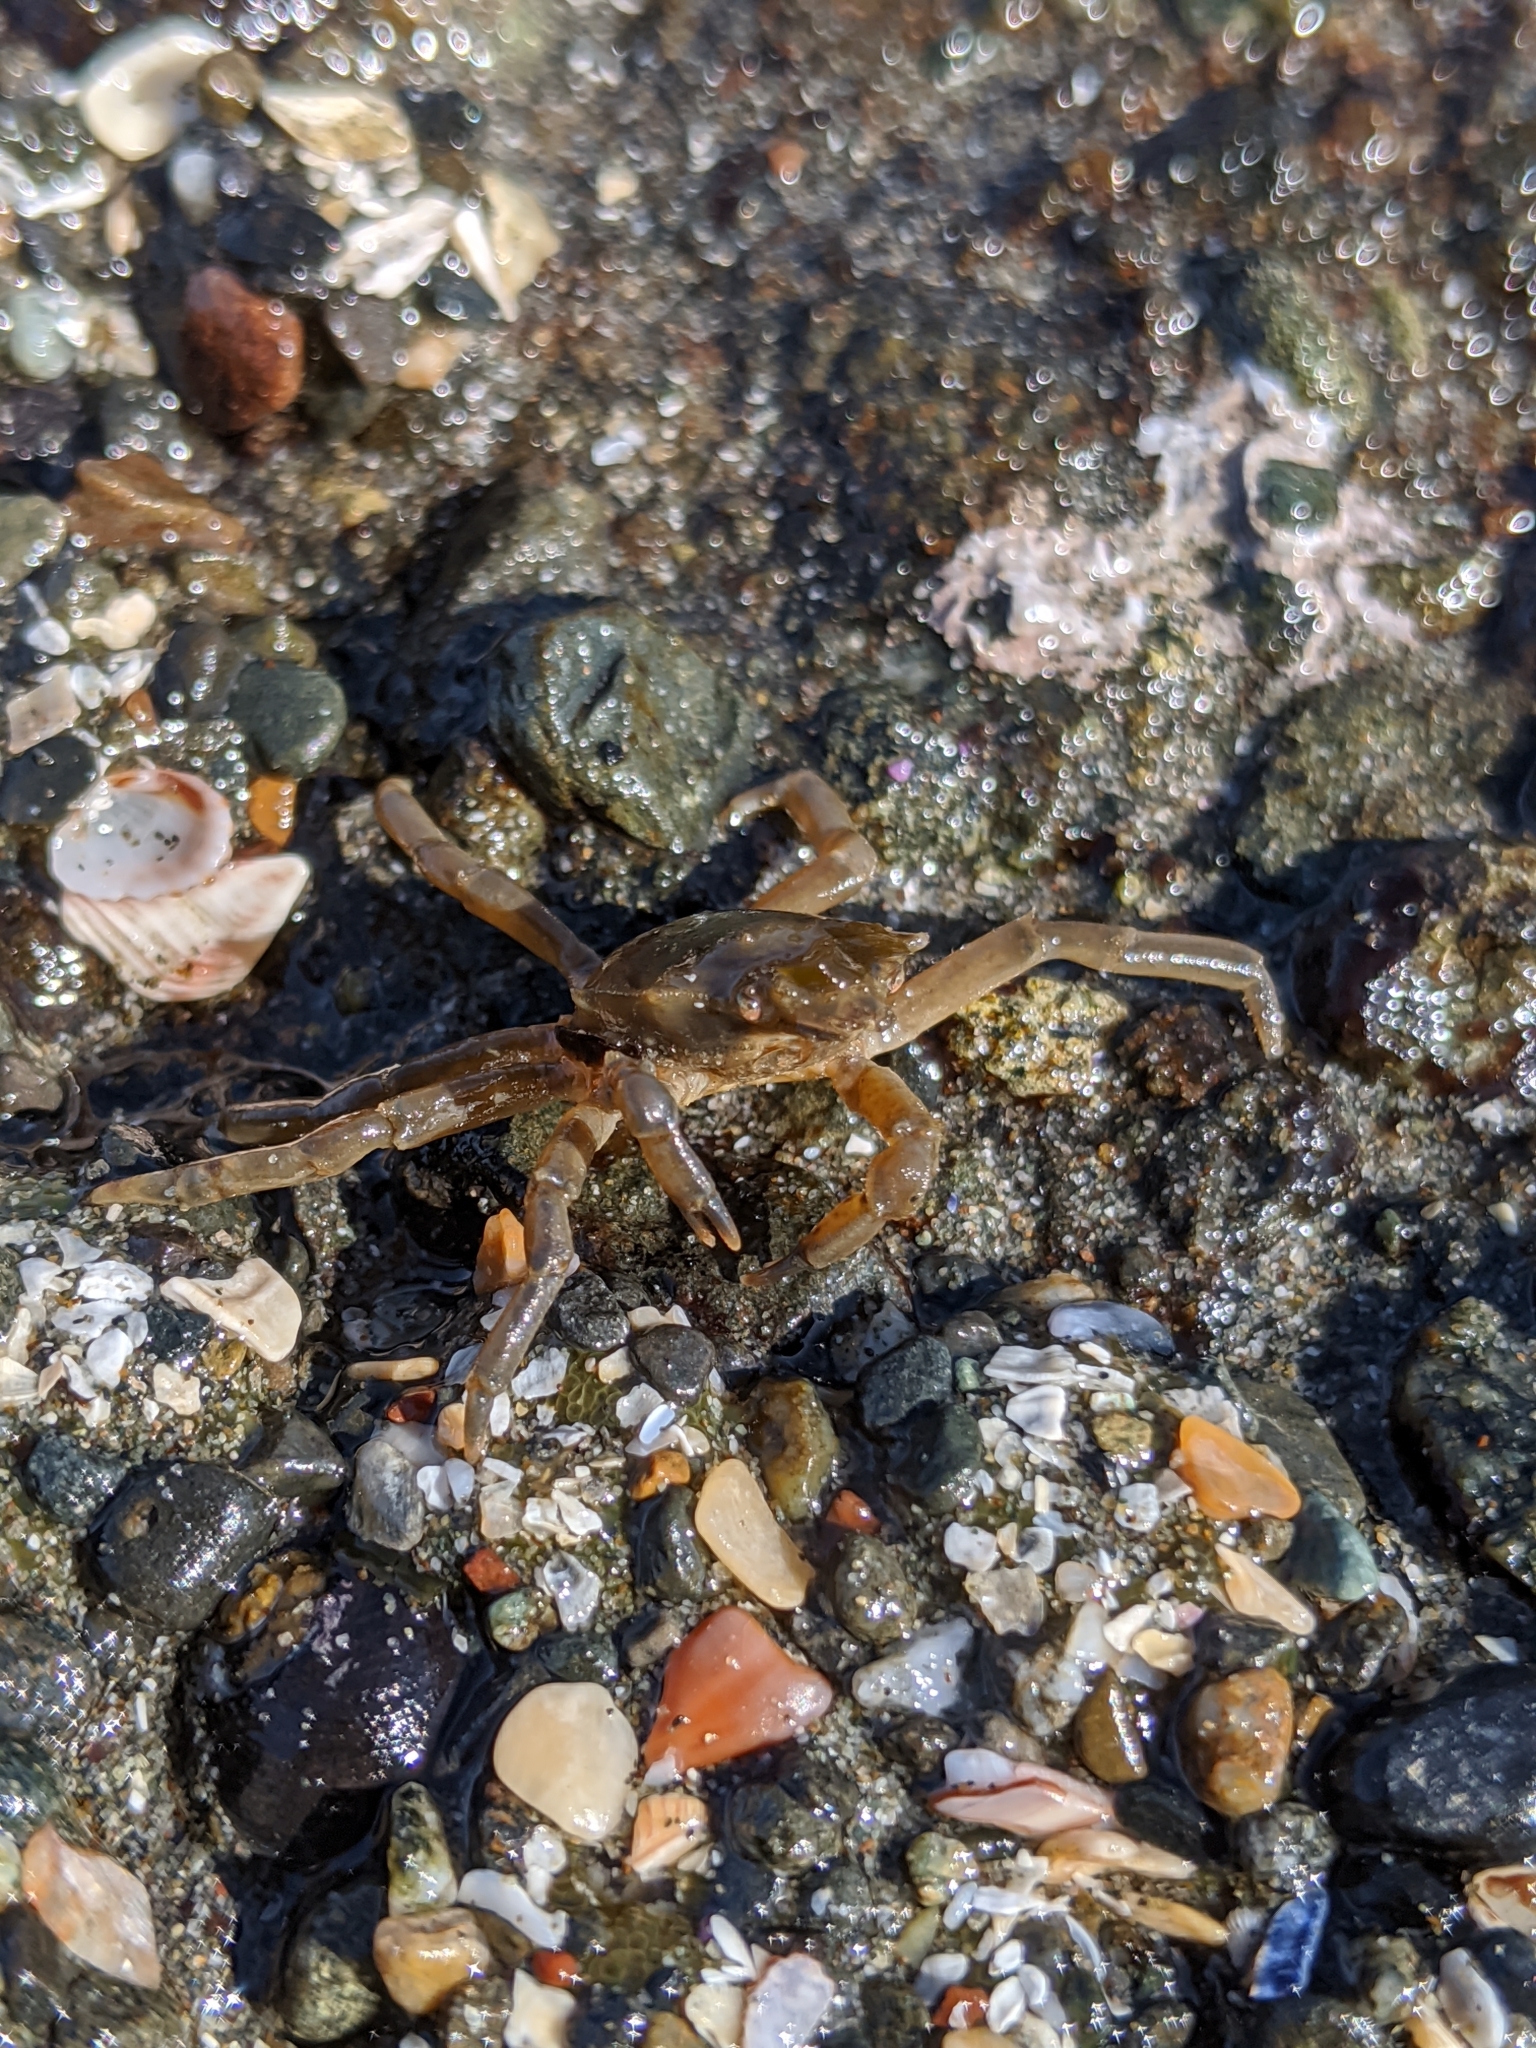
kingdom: Animalia
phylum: Arthropoda
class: Malacostraca
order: Decapoda
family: Epialtidae
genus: Pugettia
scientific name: Pugettia producta
